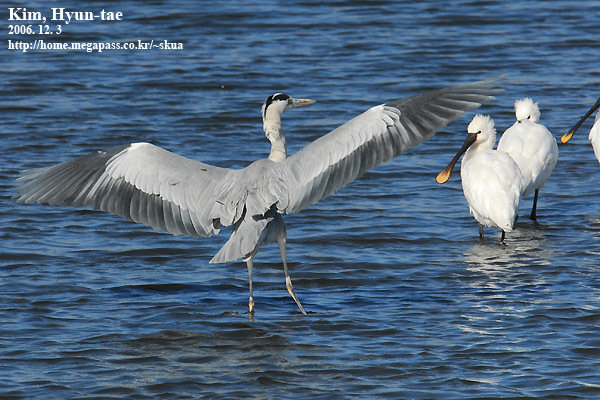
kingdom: Animalia
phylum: Chordata
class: Aves
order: Pelecaniformes
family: Ardeidae
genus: Ardea
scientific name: Ardea cinerea
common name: Grey heron
